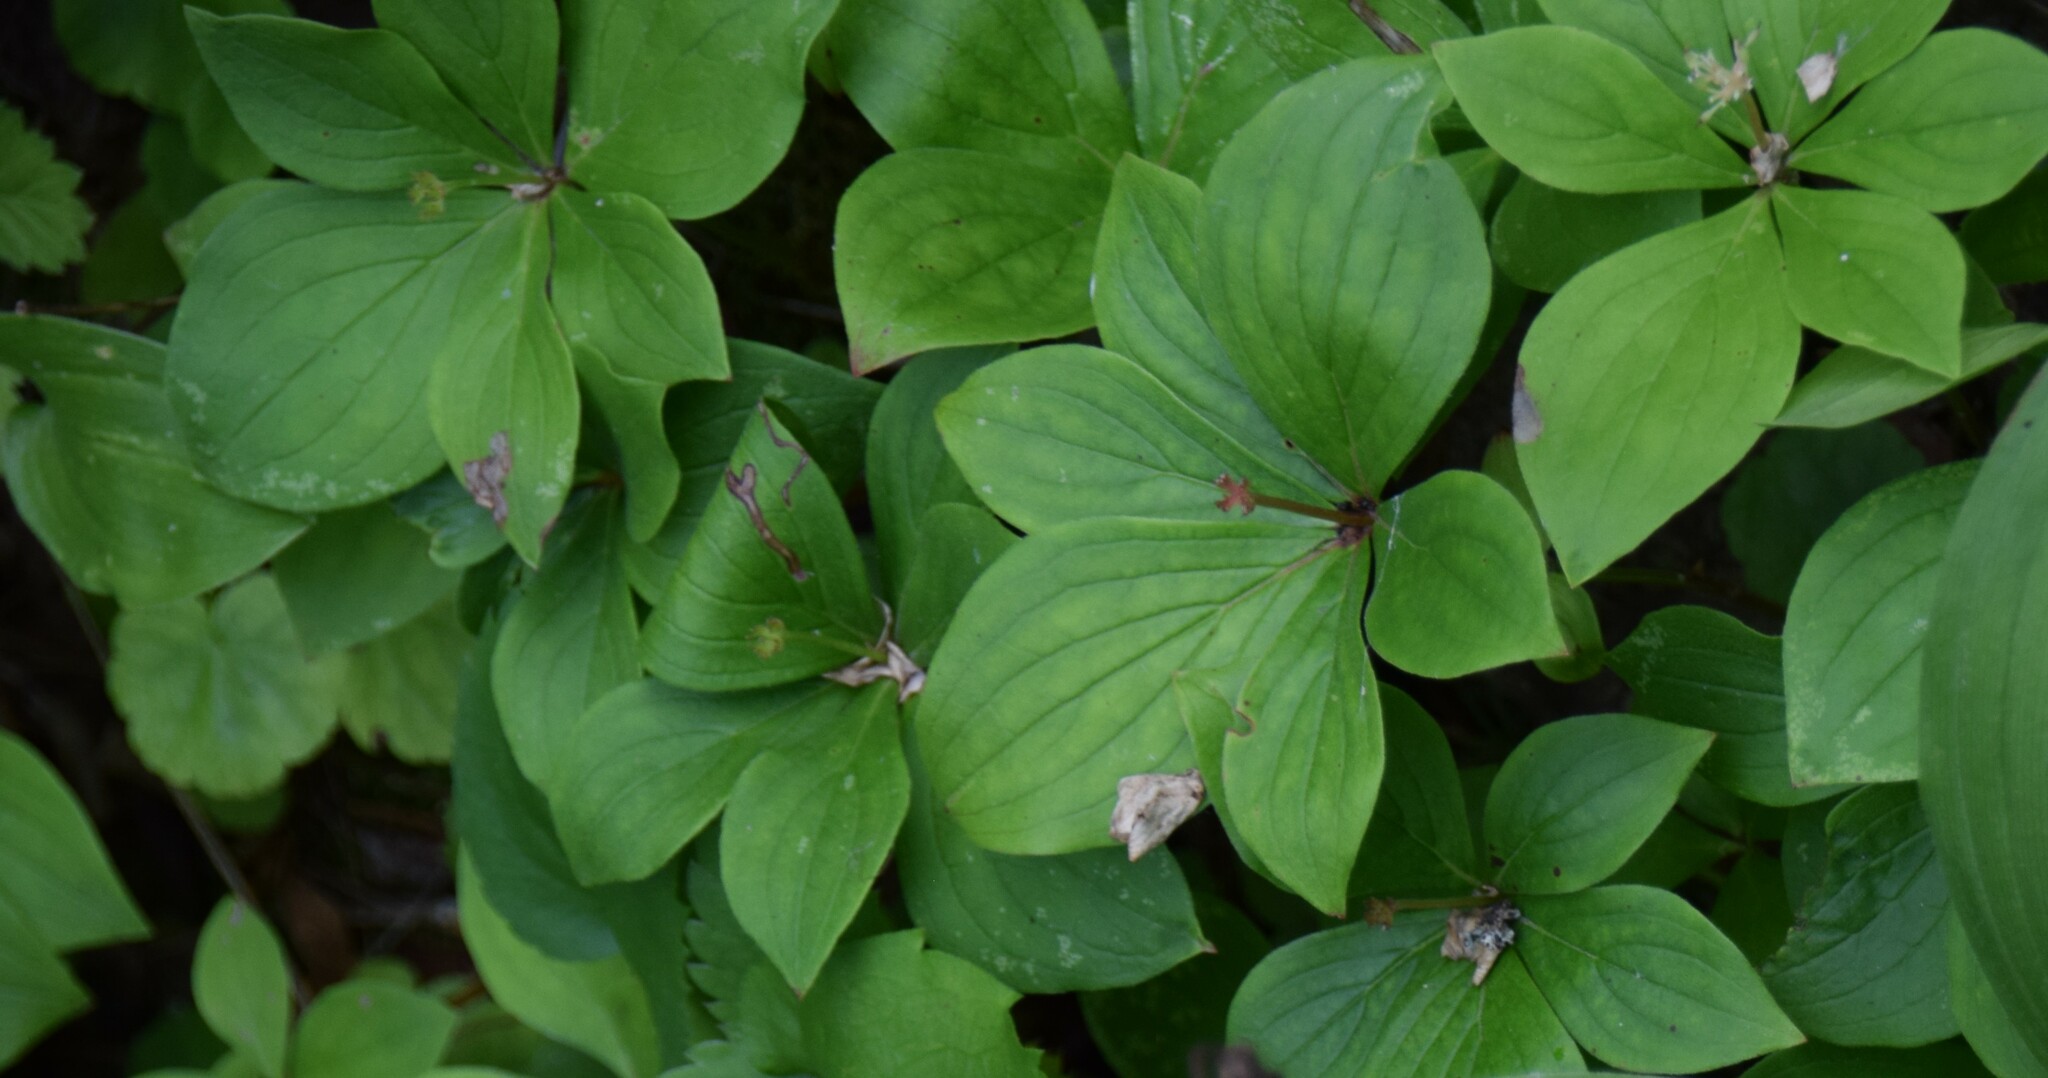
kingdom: Plantae
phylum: Tracheophyta
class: Magnoliopsida
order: Cornales
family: Cornaceae
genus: Cornus
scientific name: Cornus canadensis
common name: Creeping dogwood
